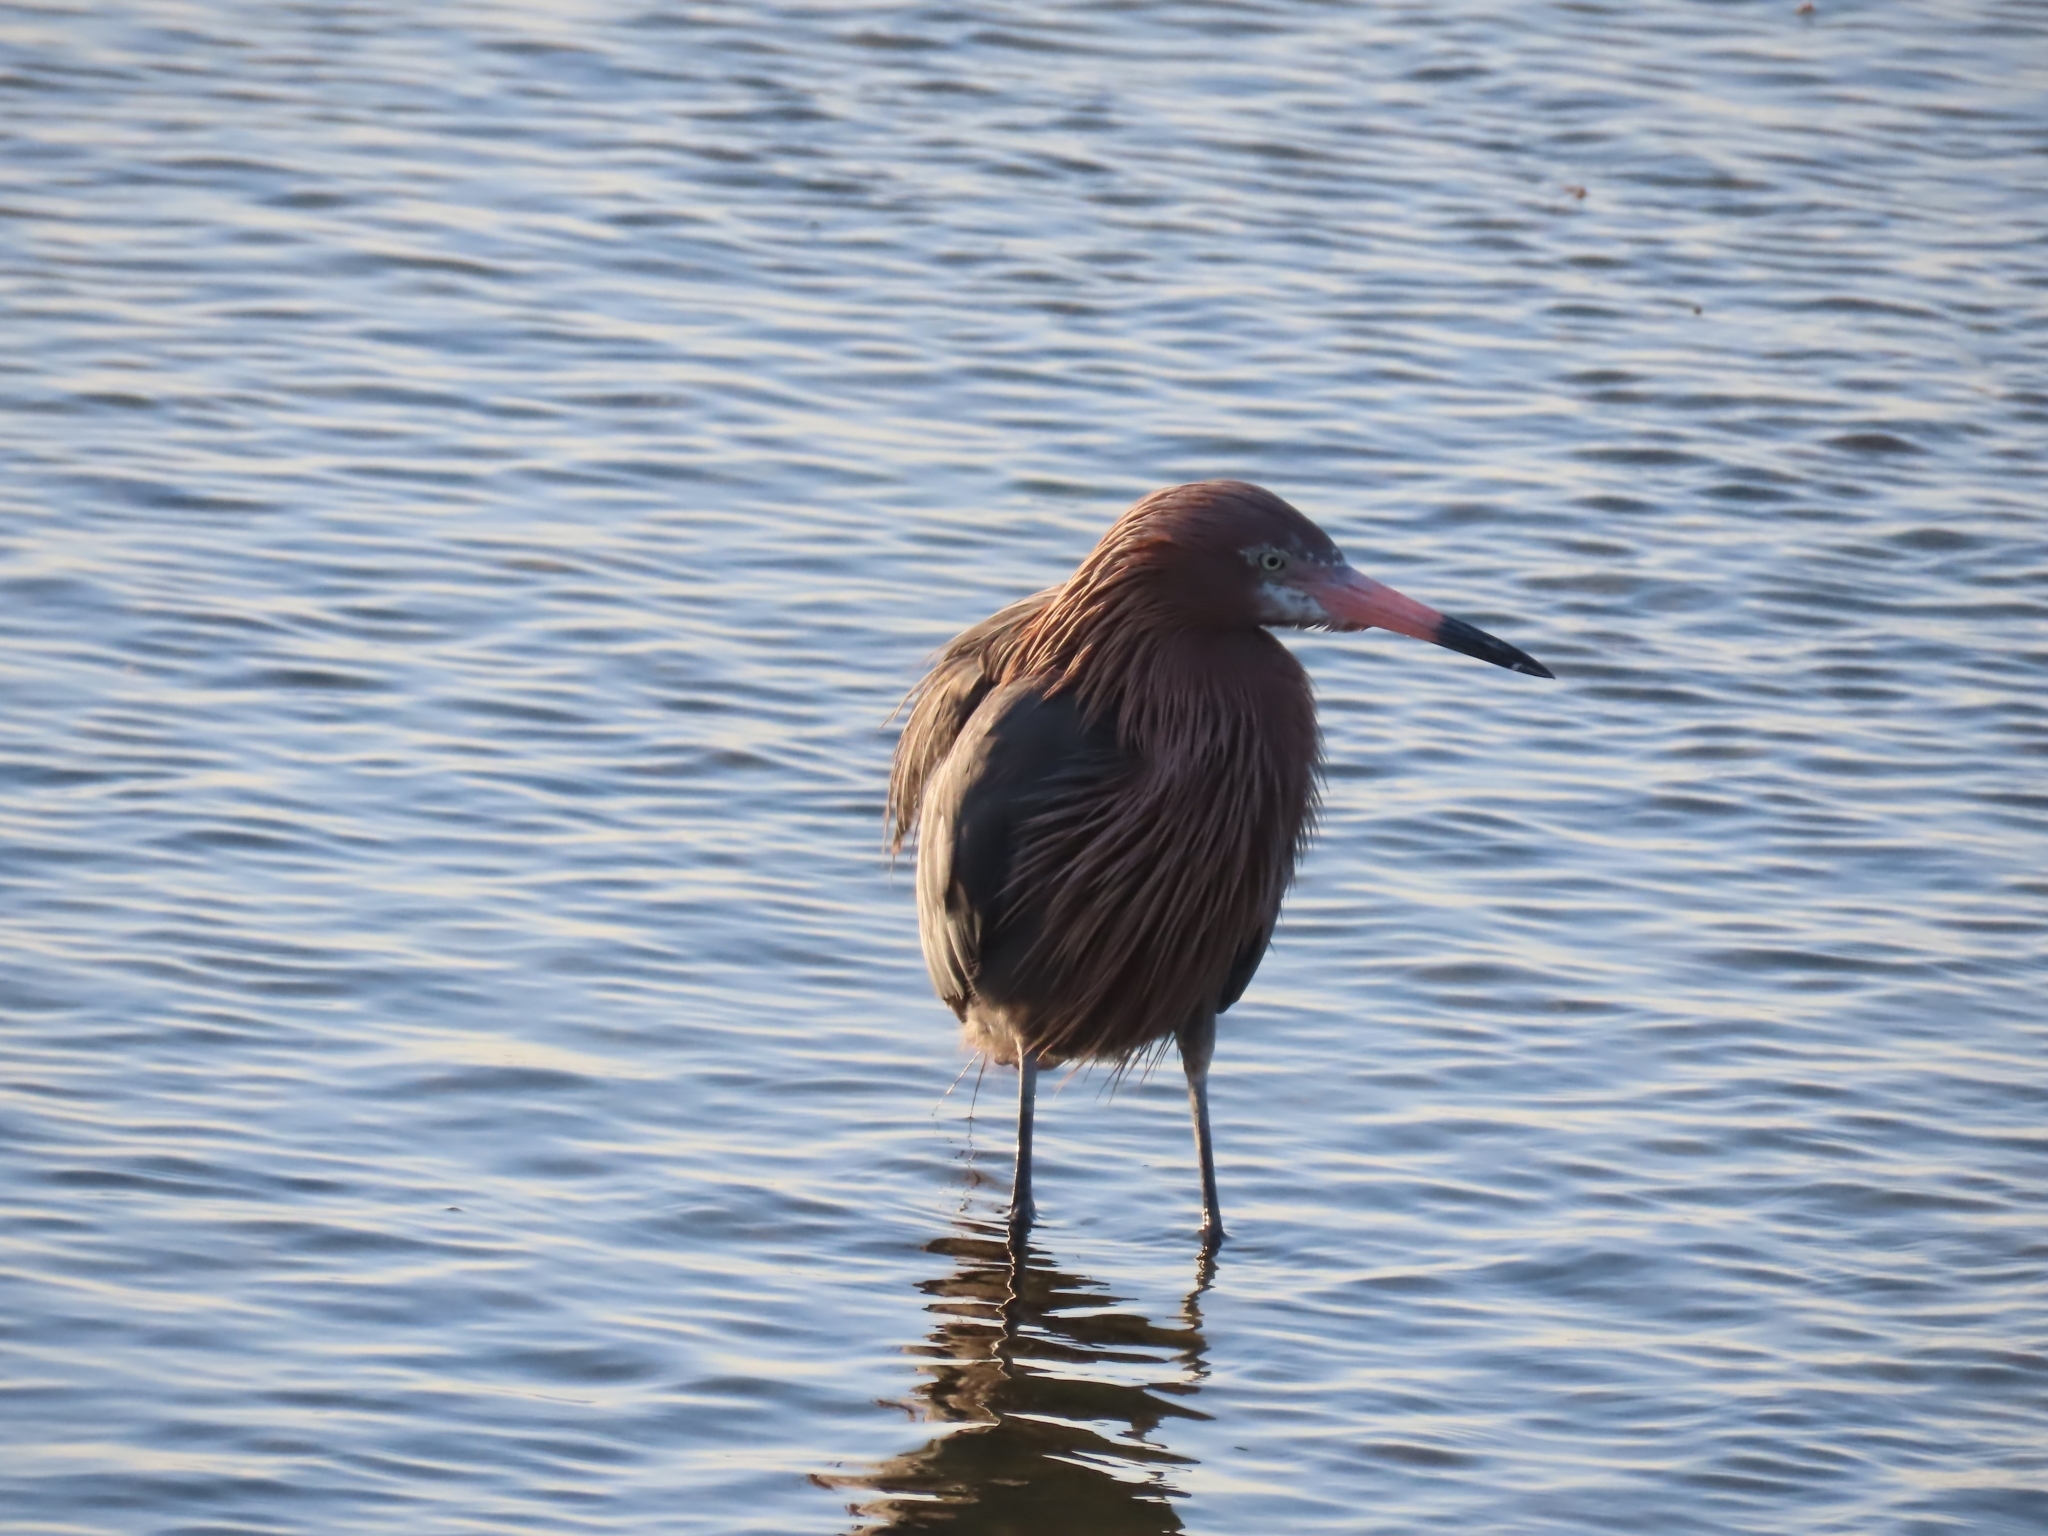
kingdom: Animalia
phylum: Chordata
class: Aves
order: Pelecaniformes
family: Ardeidae
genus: Egretta
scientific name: Egretta rufescens
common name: Reddish egret
